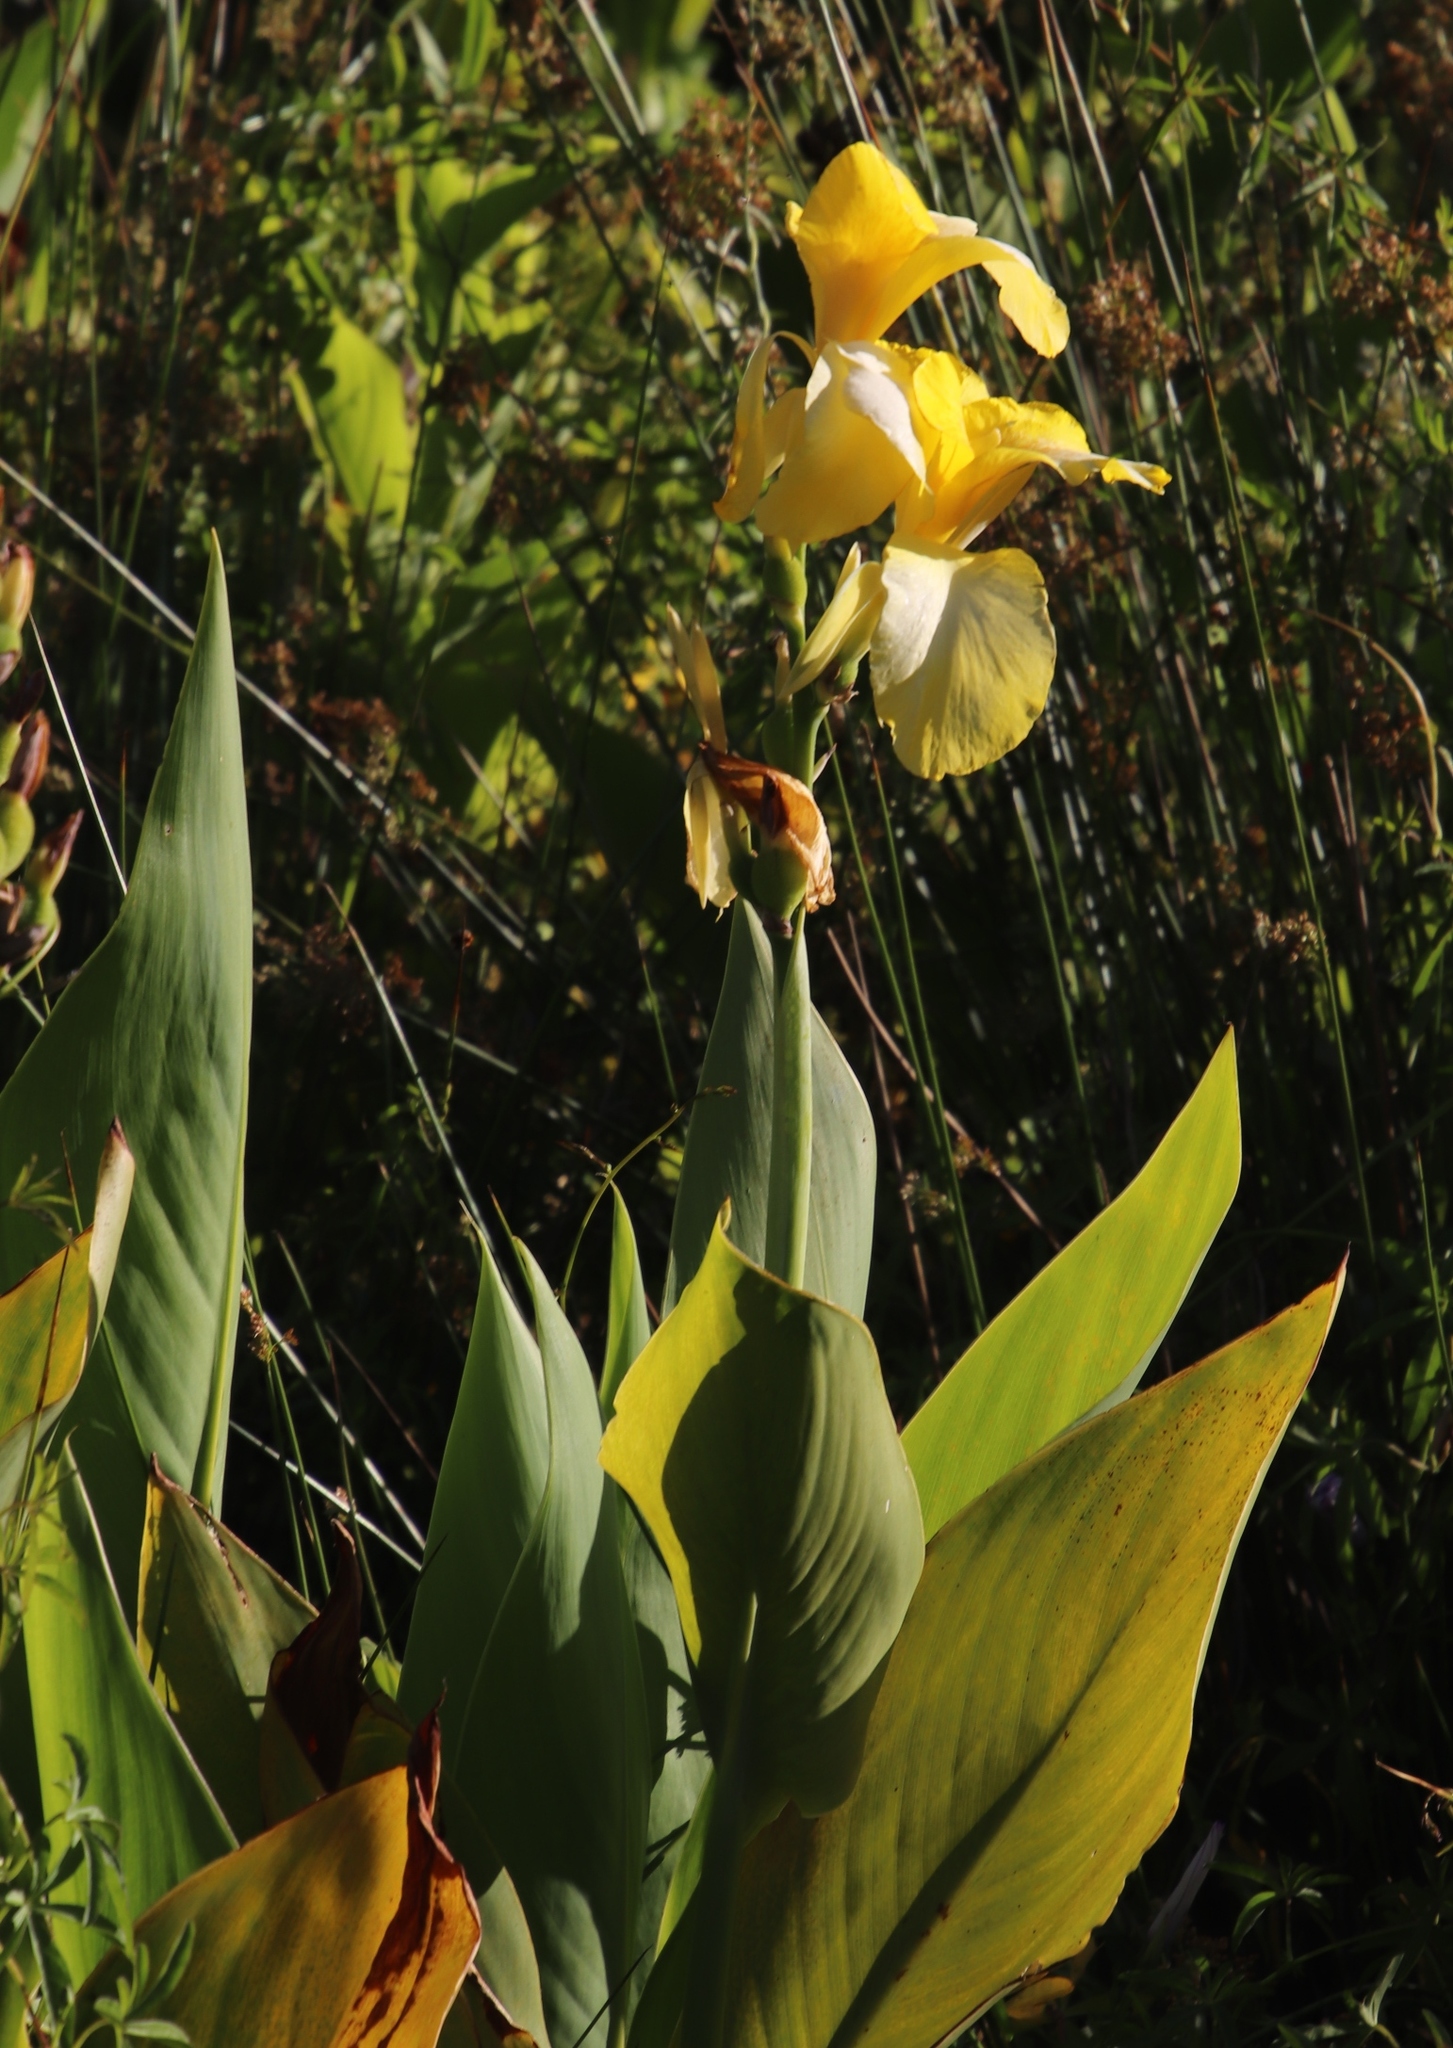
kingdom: Plantae
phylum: Tracheophyta
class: Liliopsida
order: Zingiberales
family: Cannaceae
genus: Canna
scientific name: Canna indica
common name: Indian shot
